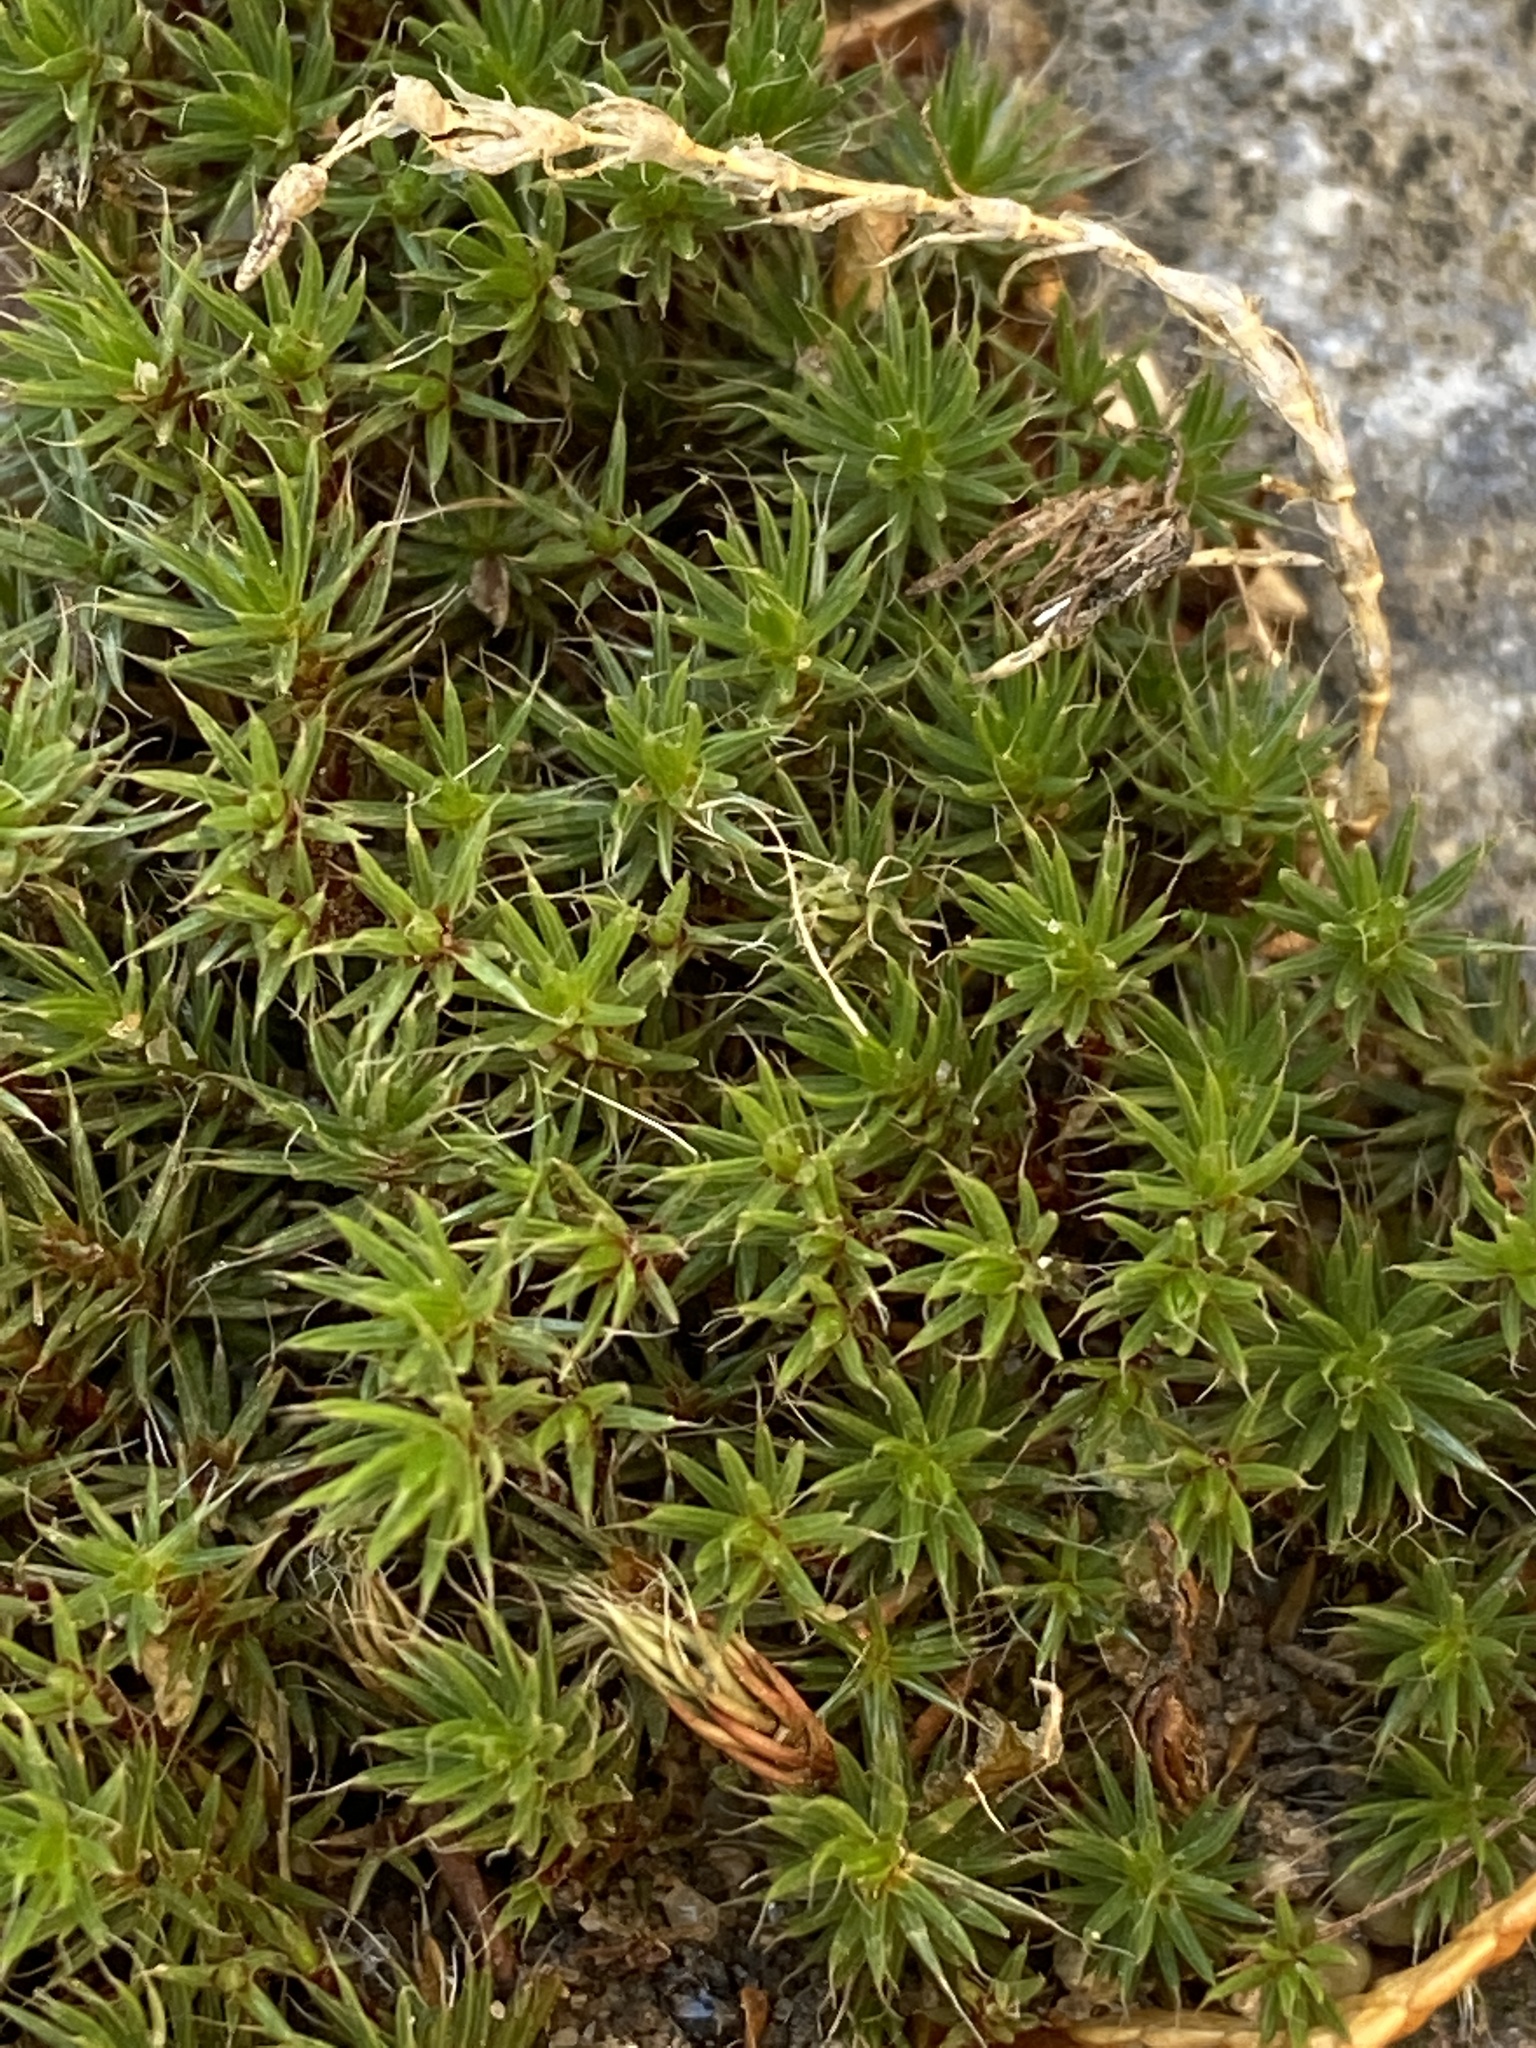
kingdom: Plantae
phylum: Bryophyta
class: Polytrichopsida
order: Polytrichales
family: Polytrichaceae
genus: Polytrichum
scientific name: Polytrichum piliferum
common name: Bristly haircap
